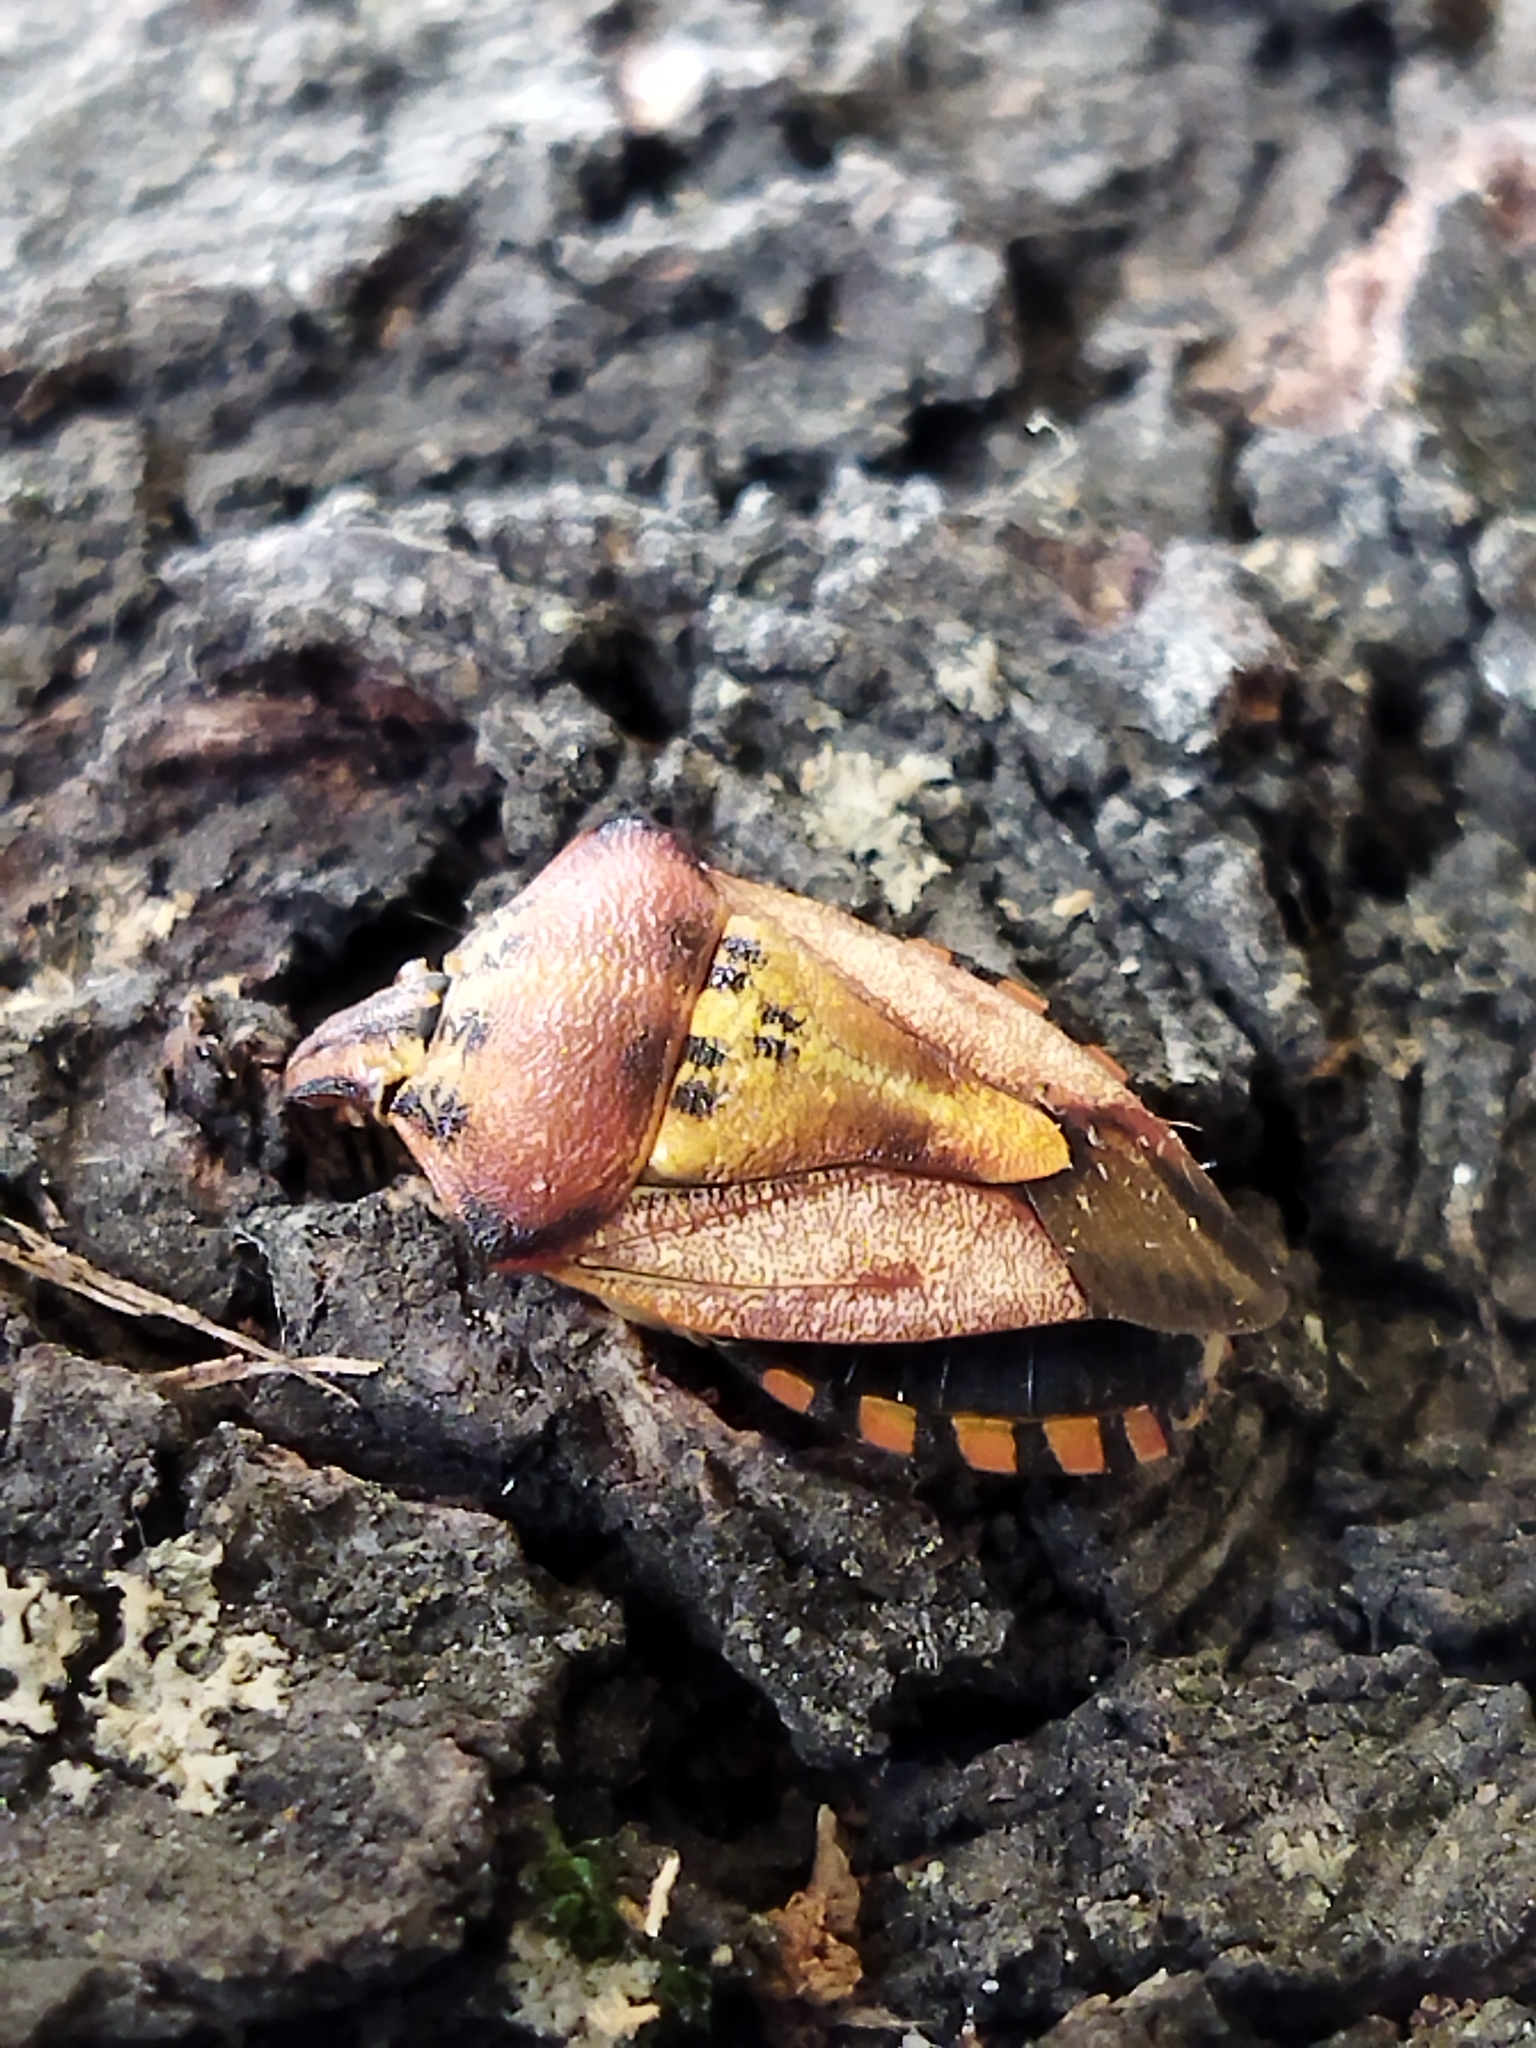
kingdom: Animalia
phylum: Arthropoda
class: Insecta
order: Hemiptera
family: Pentatomidae
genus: Carpocoris
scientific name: Carpocoris mediterraneus
